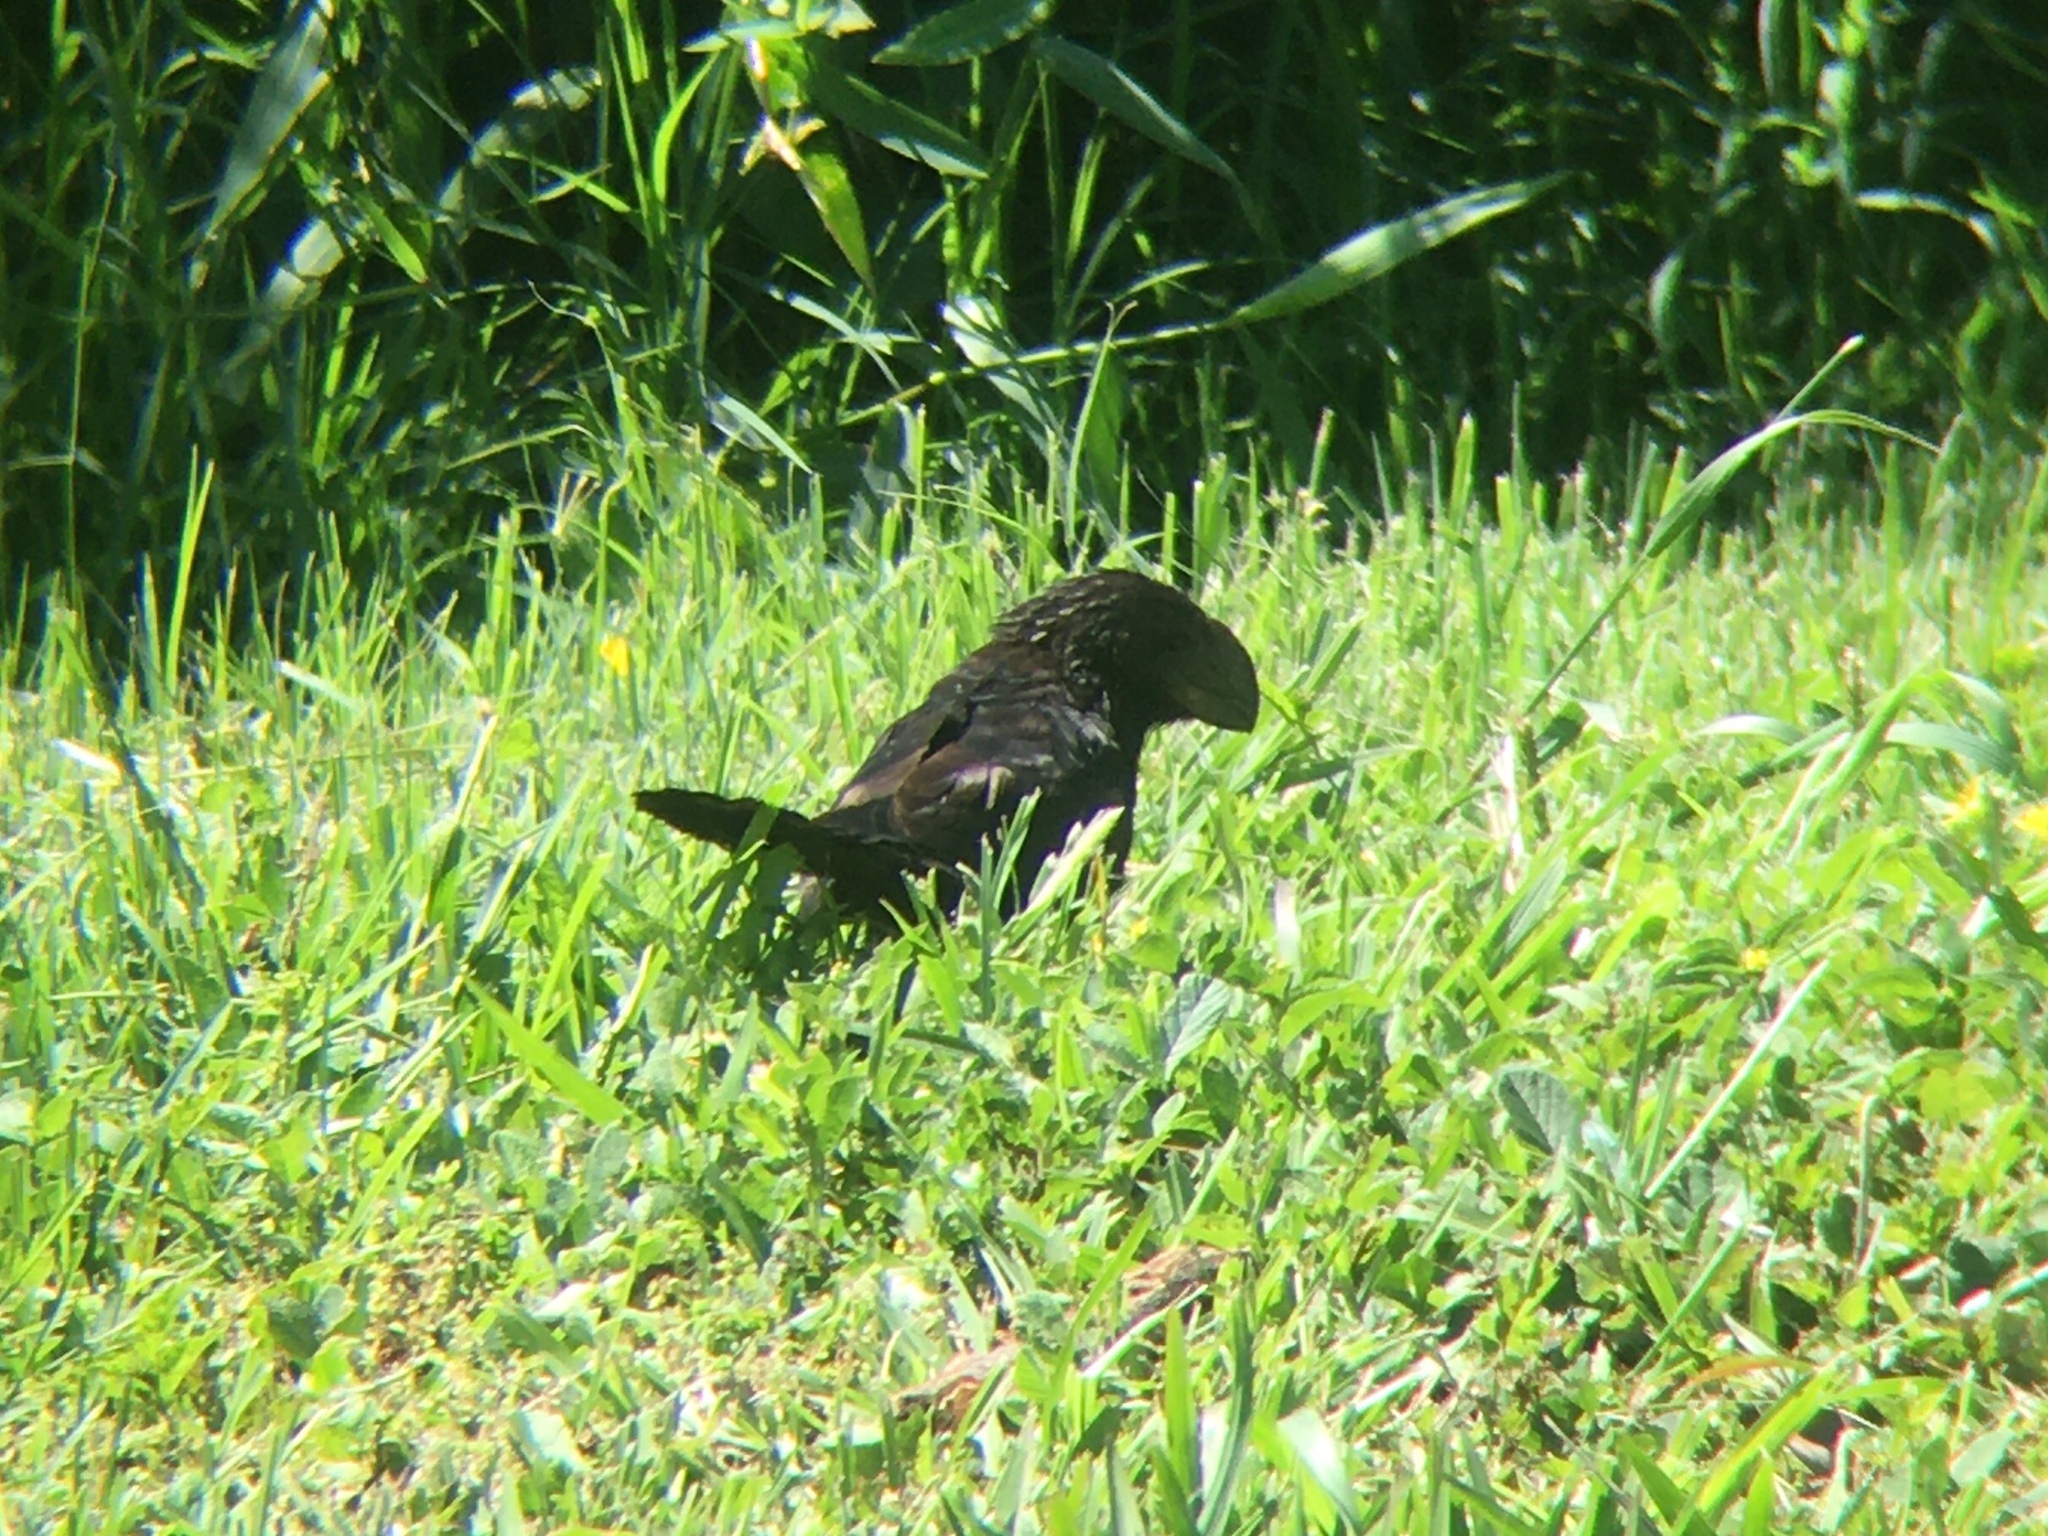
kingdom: Animalia
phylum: Chordata
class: Aves
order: Cuculiformes
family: Cuculidae
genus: Crotophaga
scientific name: Crotophaga ani
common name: Smooth-billed ani
